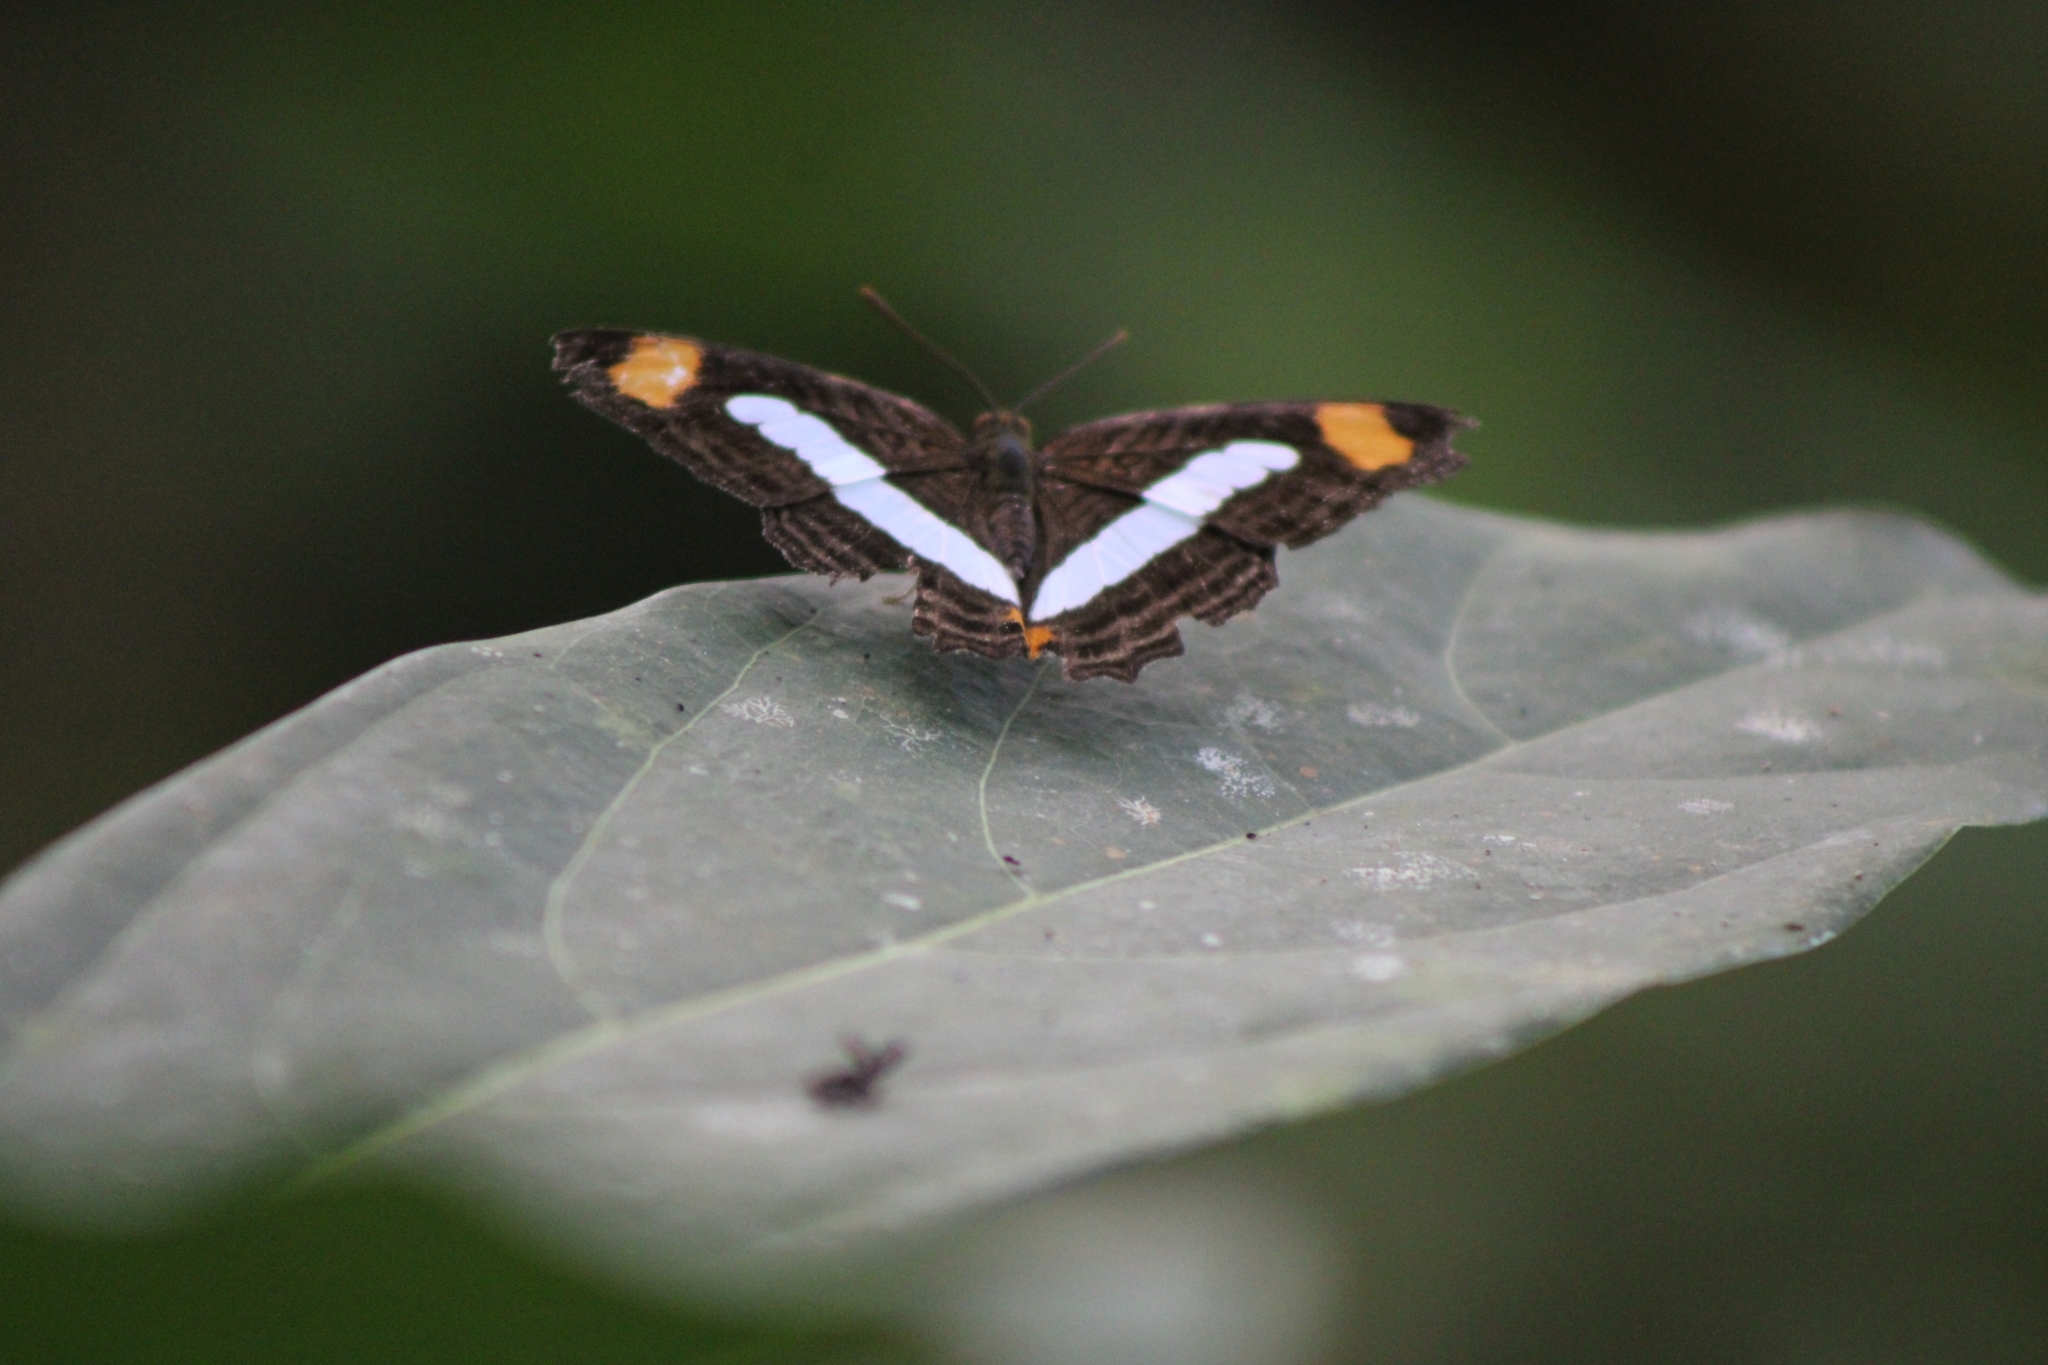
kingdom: Animalia
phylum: Arthropoda
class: Insecta
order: Lepidoptera
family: Nymphalidae
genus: Limenitis
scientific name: Limenitis Adelpha iphiclus
